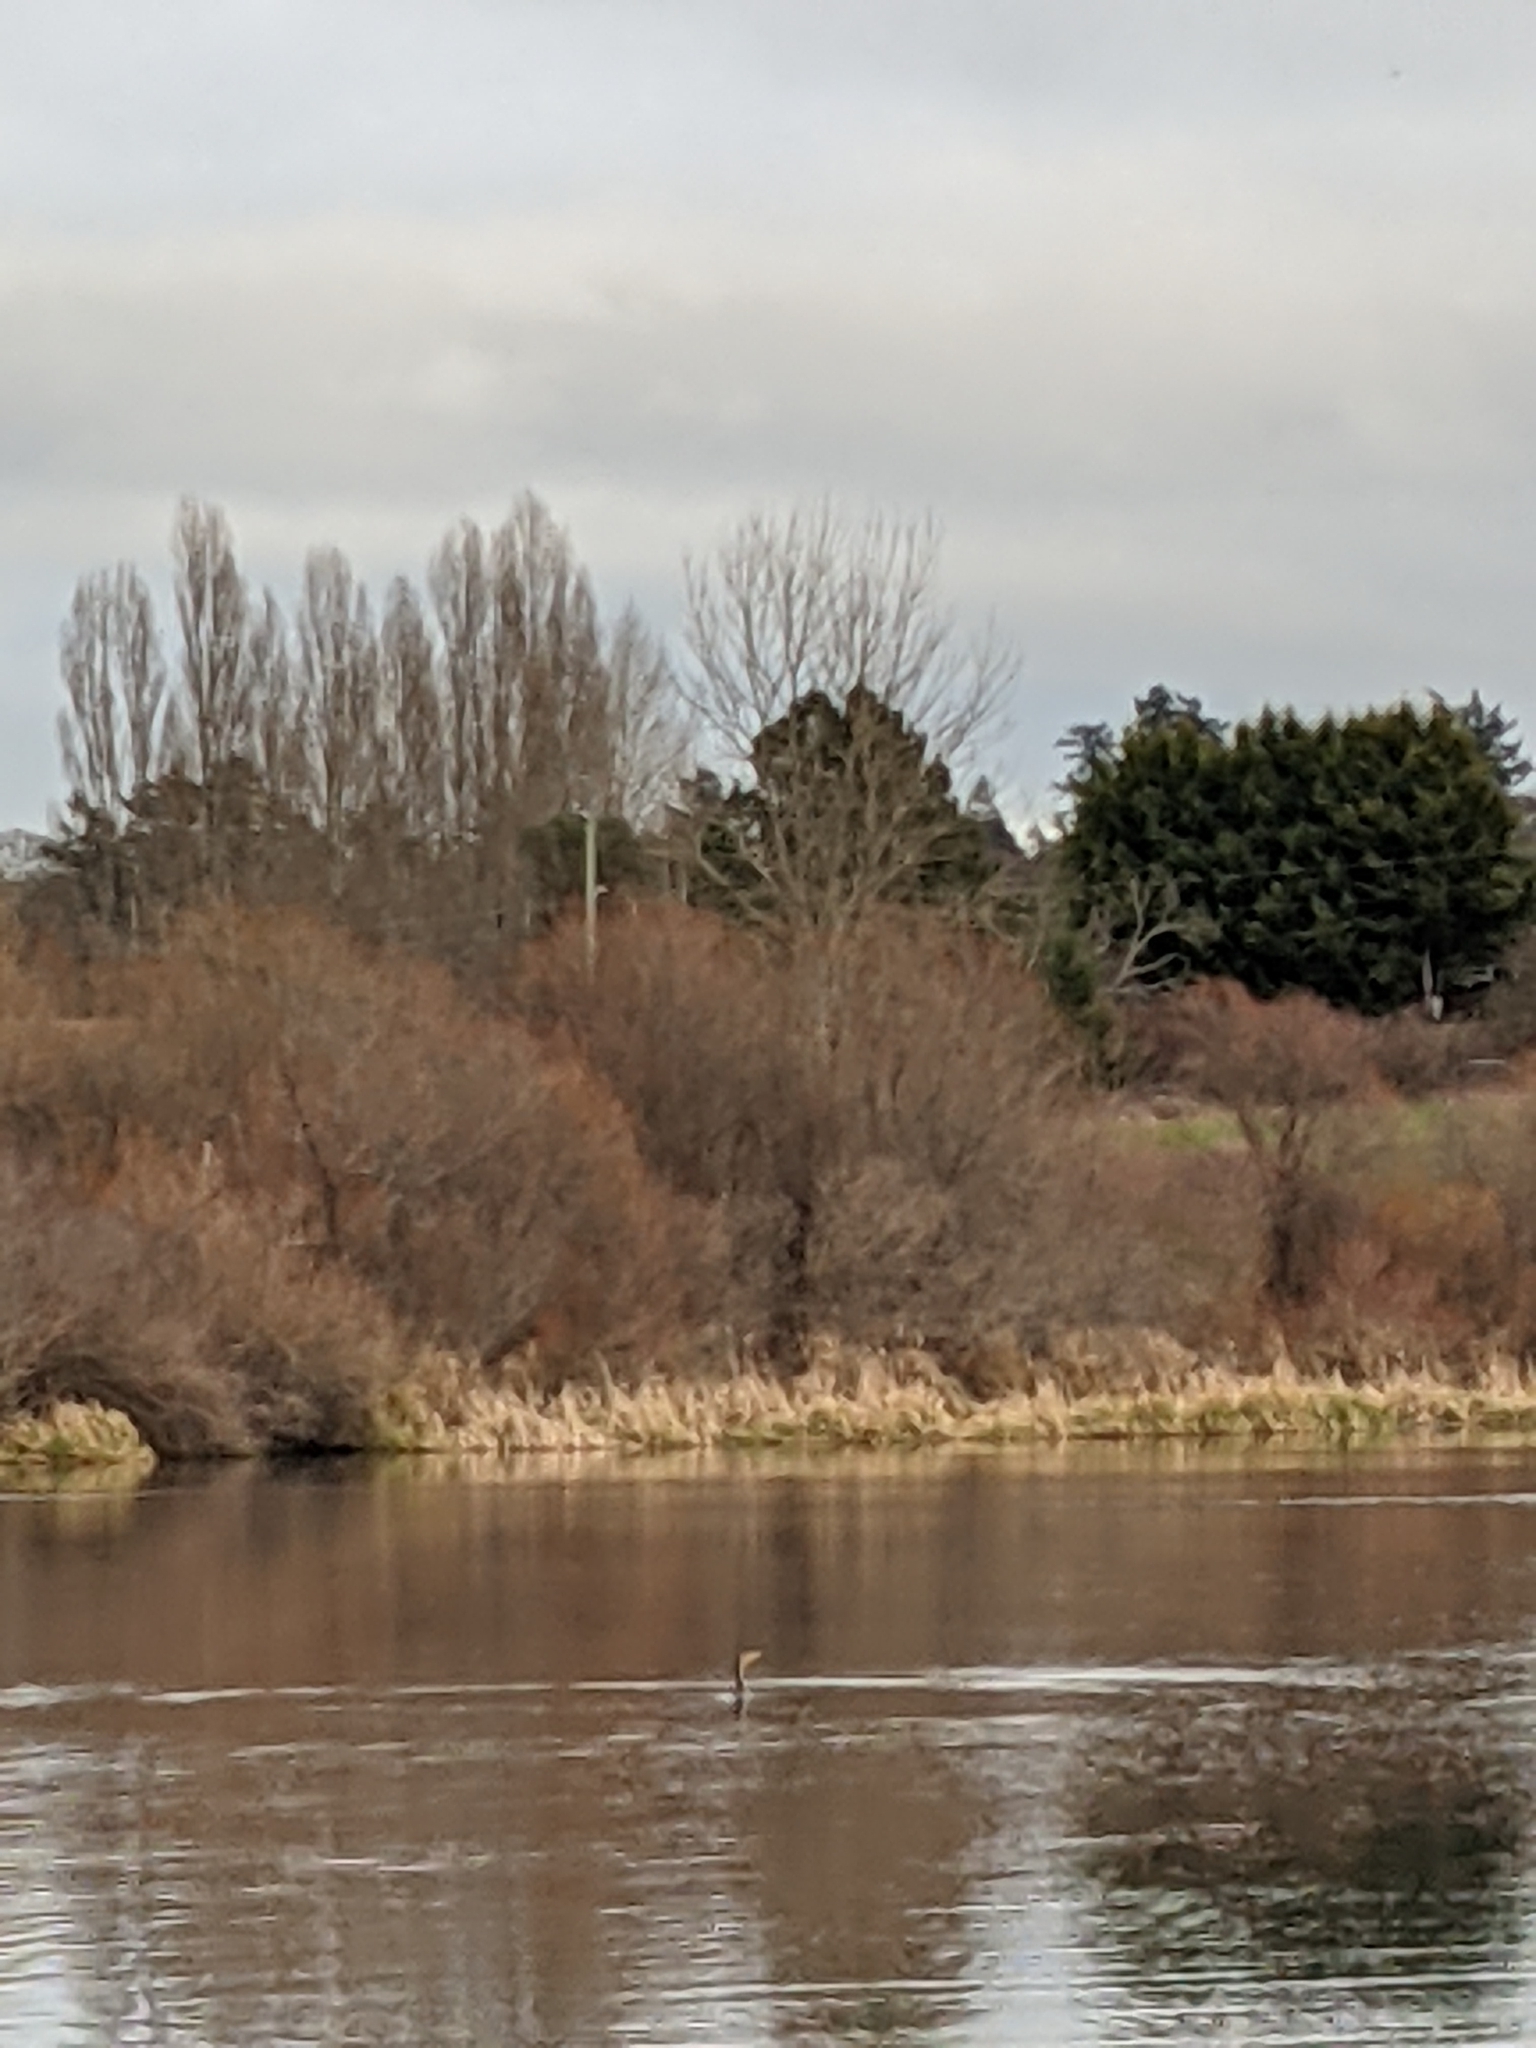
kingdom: Animalia
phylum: Chordata
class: Aves
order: Suliformes
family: Phalacrocoracidae
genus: Phalacrocorax
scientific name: Phalacrocorax auritus
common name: Double-crested cormorant
